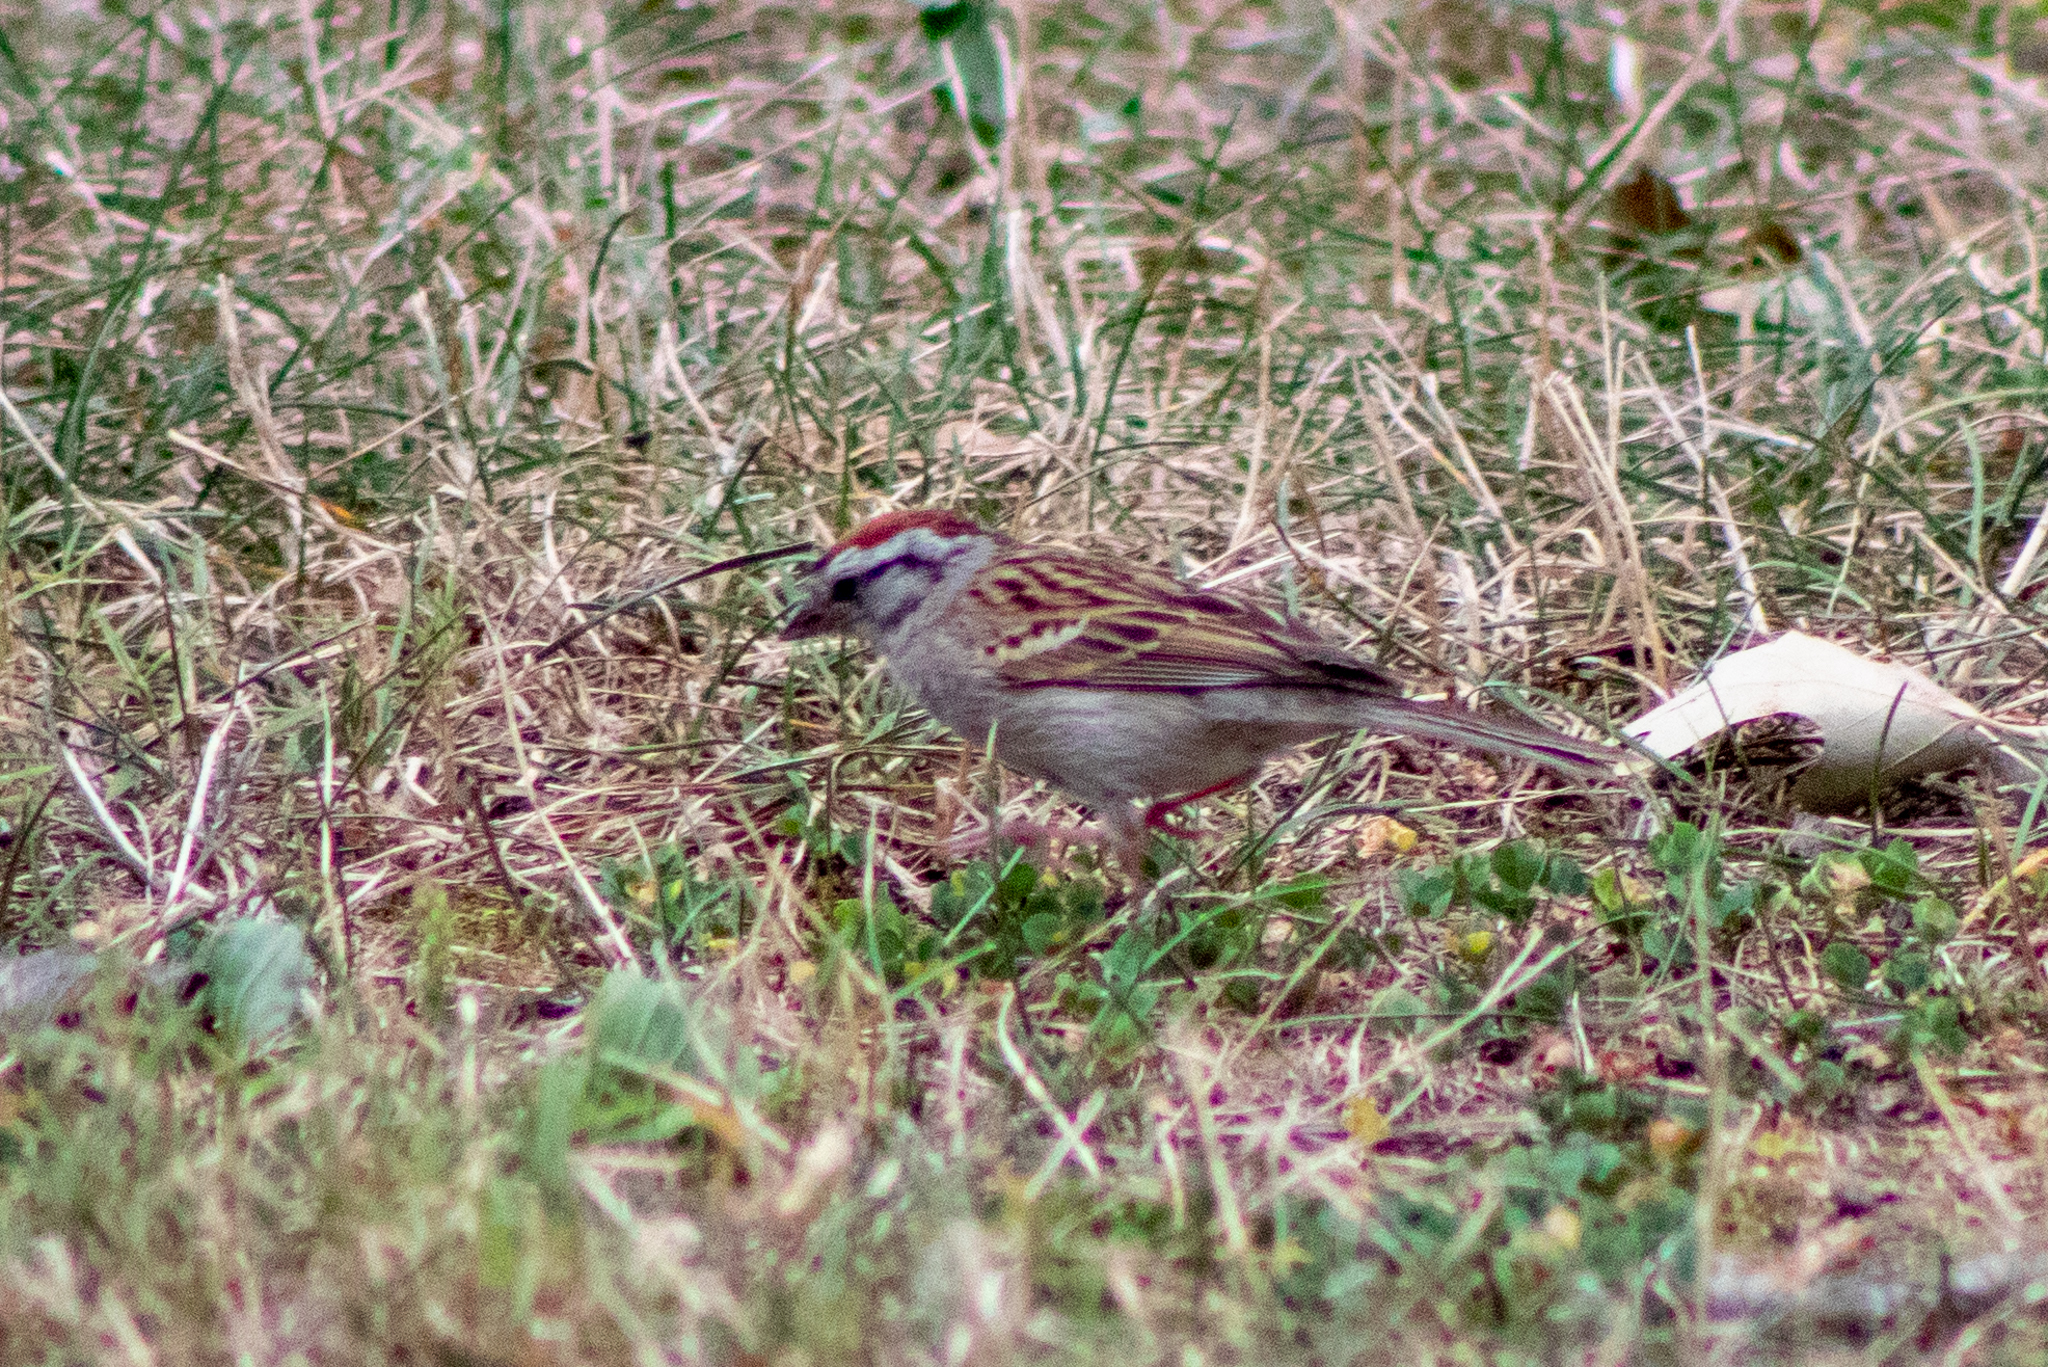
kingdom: Animalia
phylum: Chordata
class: Aves
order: Passeriformes
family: Passerellidae
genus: Spizella
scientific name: Spizella passerina
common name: Chipping sparrow
